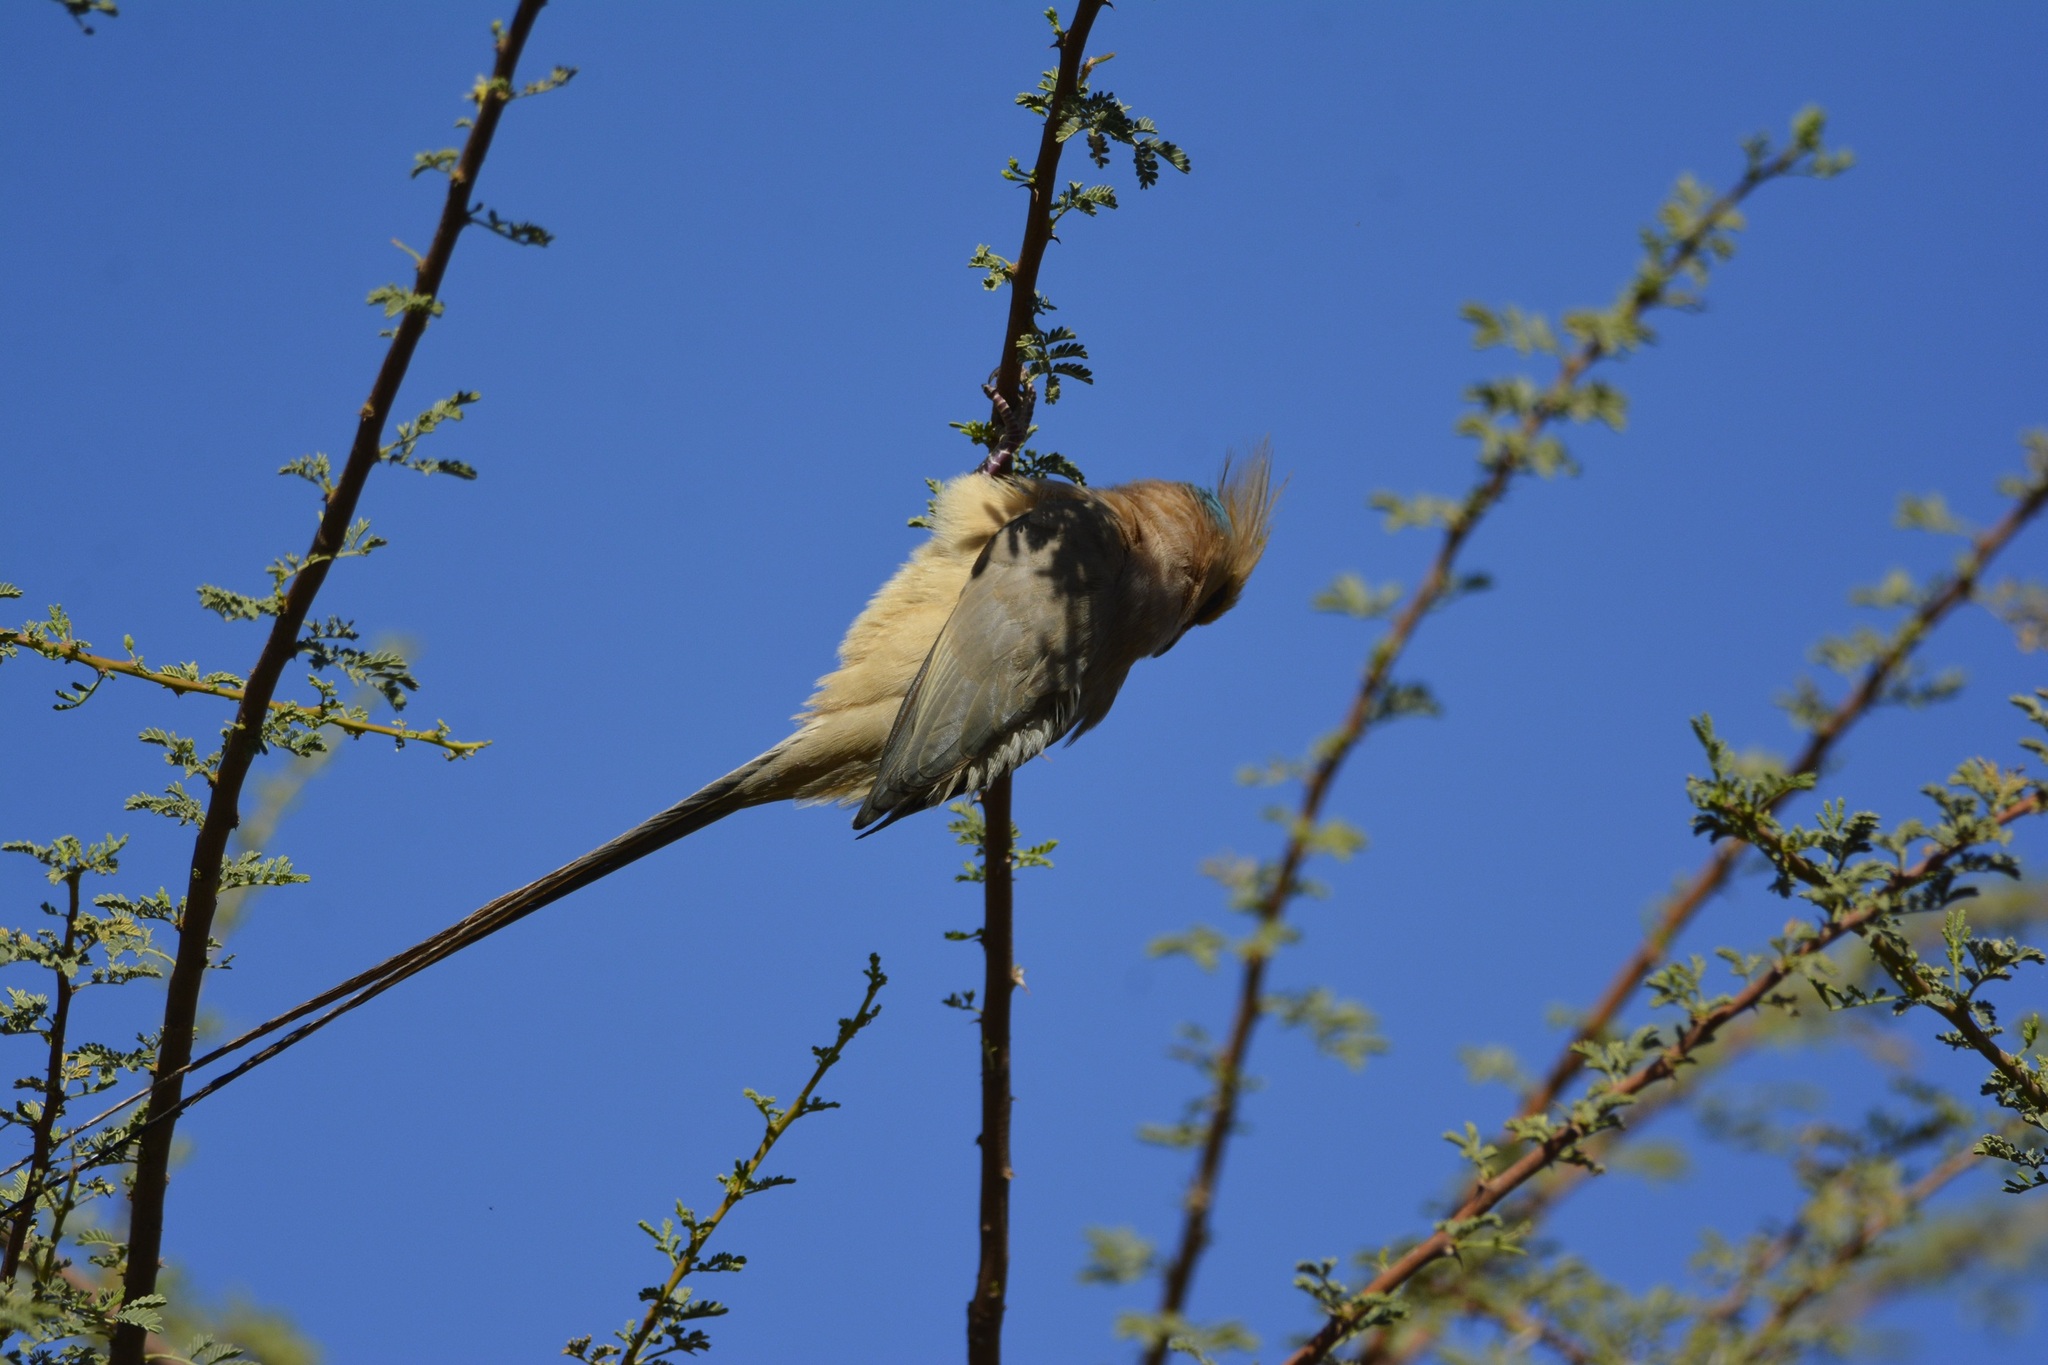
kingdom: Animalia
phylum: Chordata
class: Aves
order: Coliiformes
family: Coliidae
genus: Urocolius
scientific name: Urocolius macrourus
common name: Blue-naped mousebird
